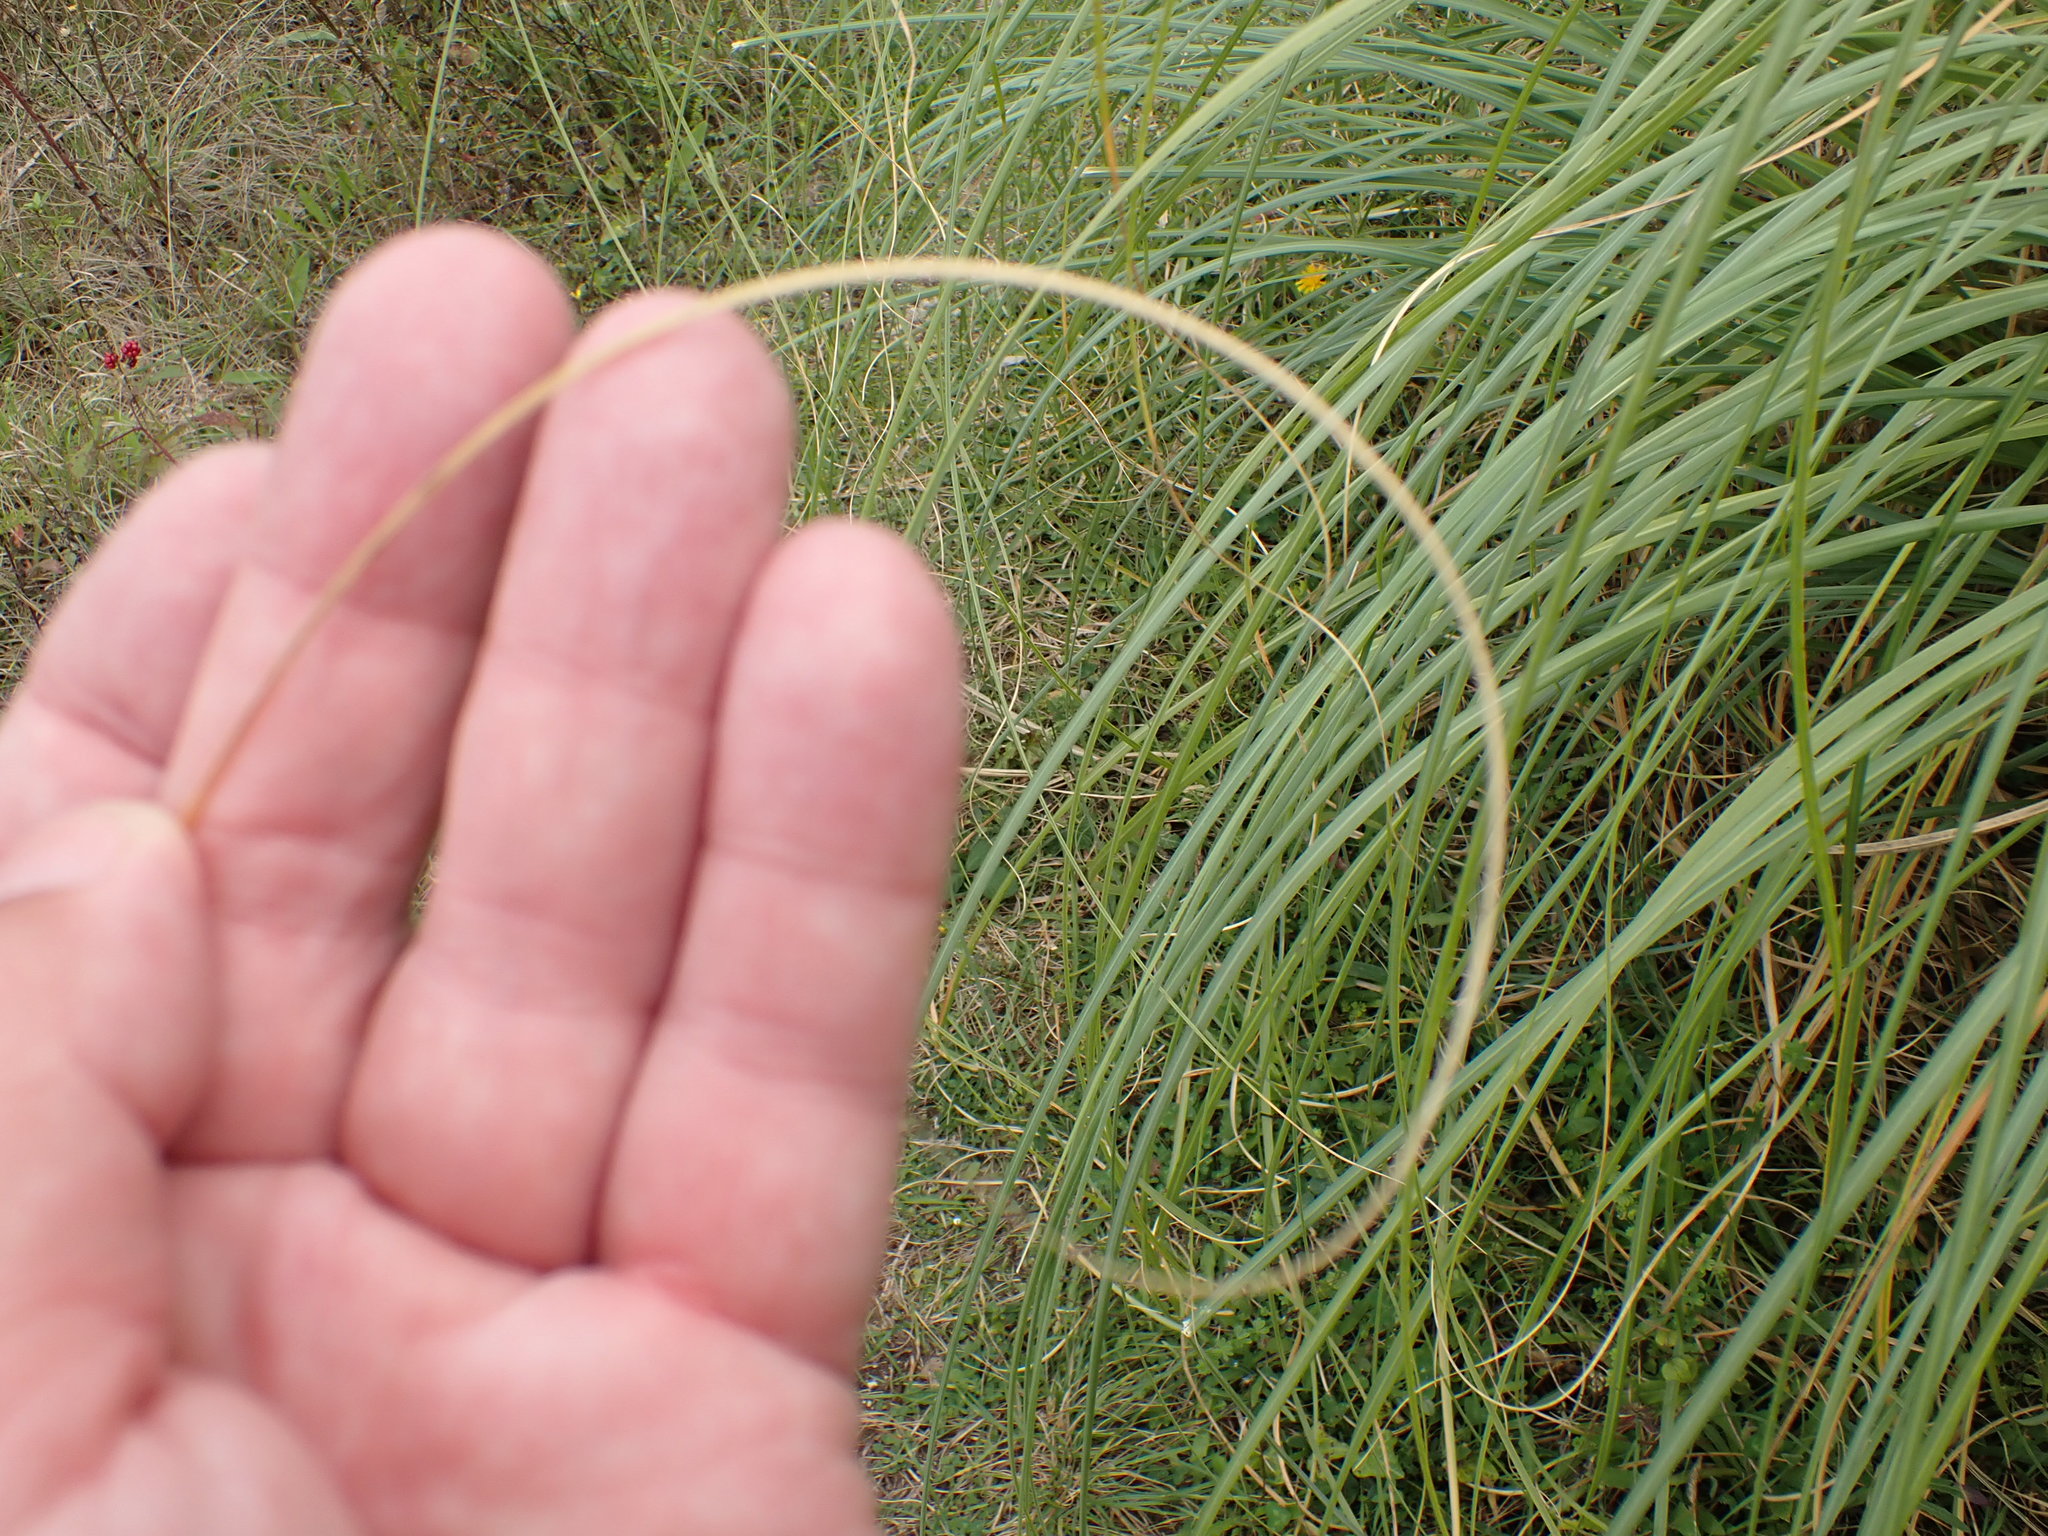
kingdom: Plantae
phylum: Tracheophyta
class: Liliopsida
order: Poales
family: Poaceae
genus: Cortaderia
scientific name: Cortaderia selloana
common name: Uruguayan pampas grass
